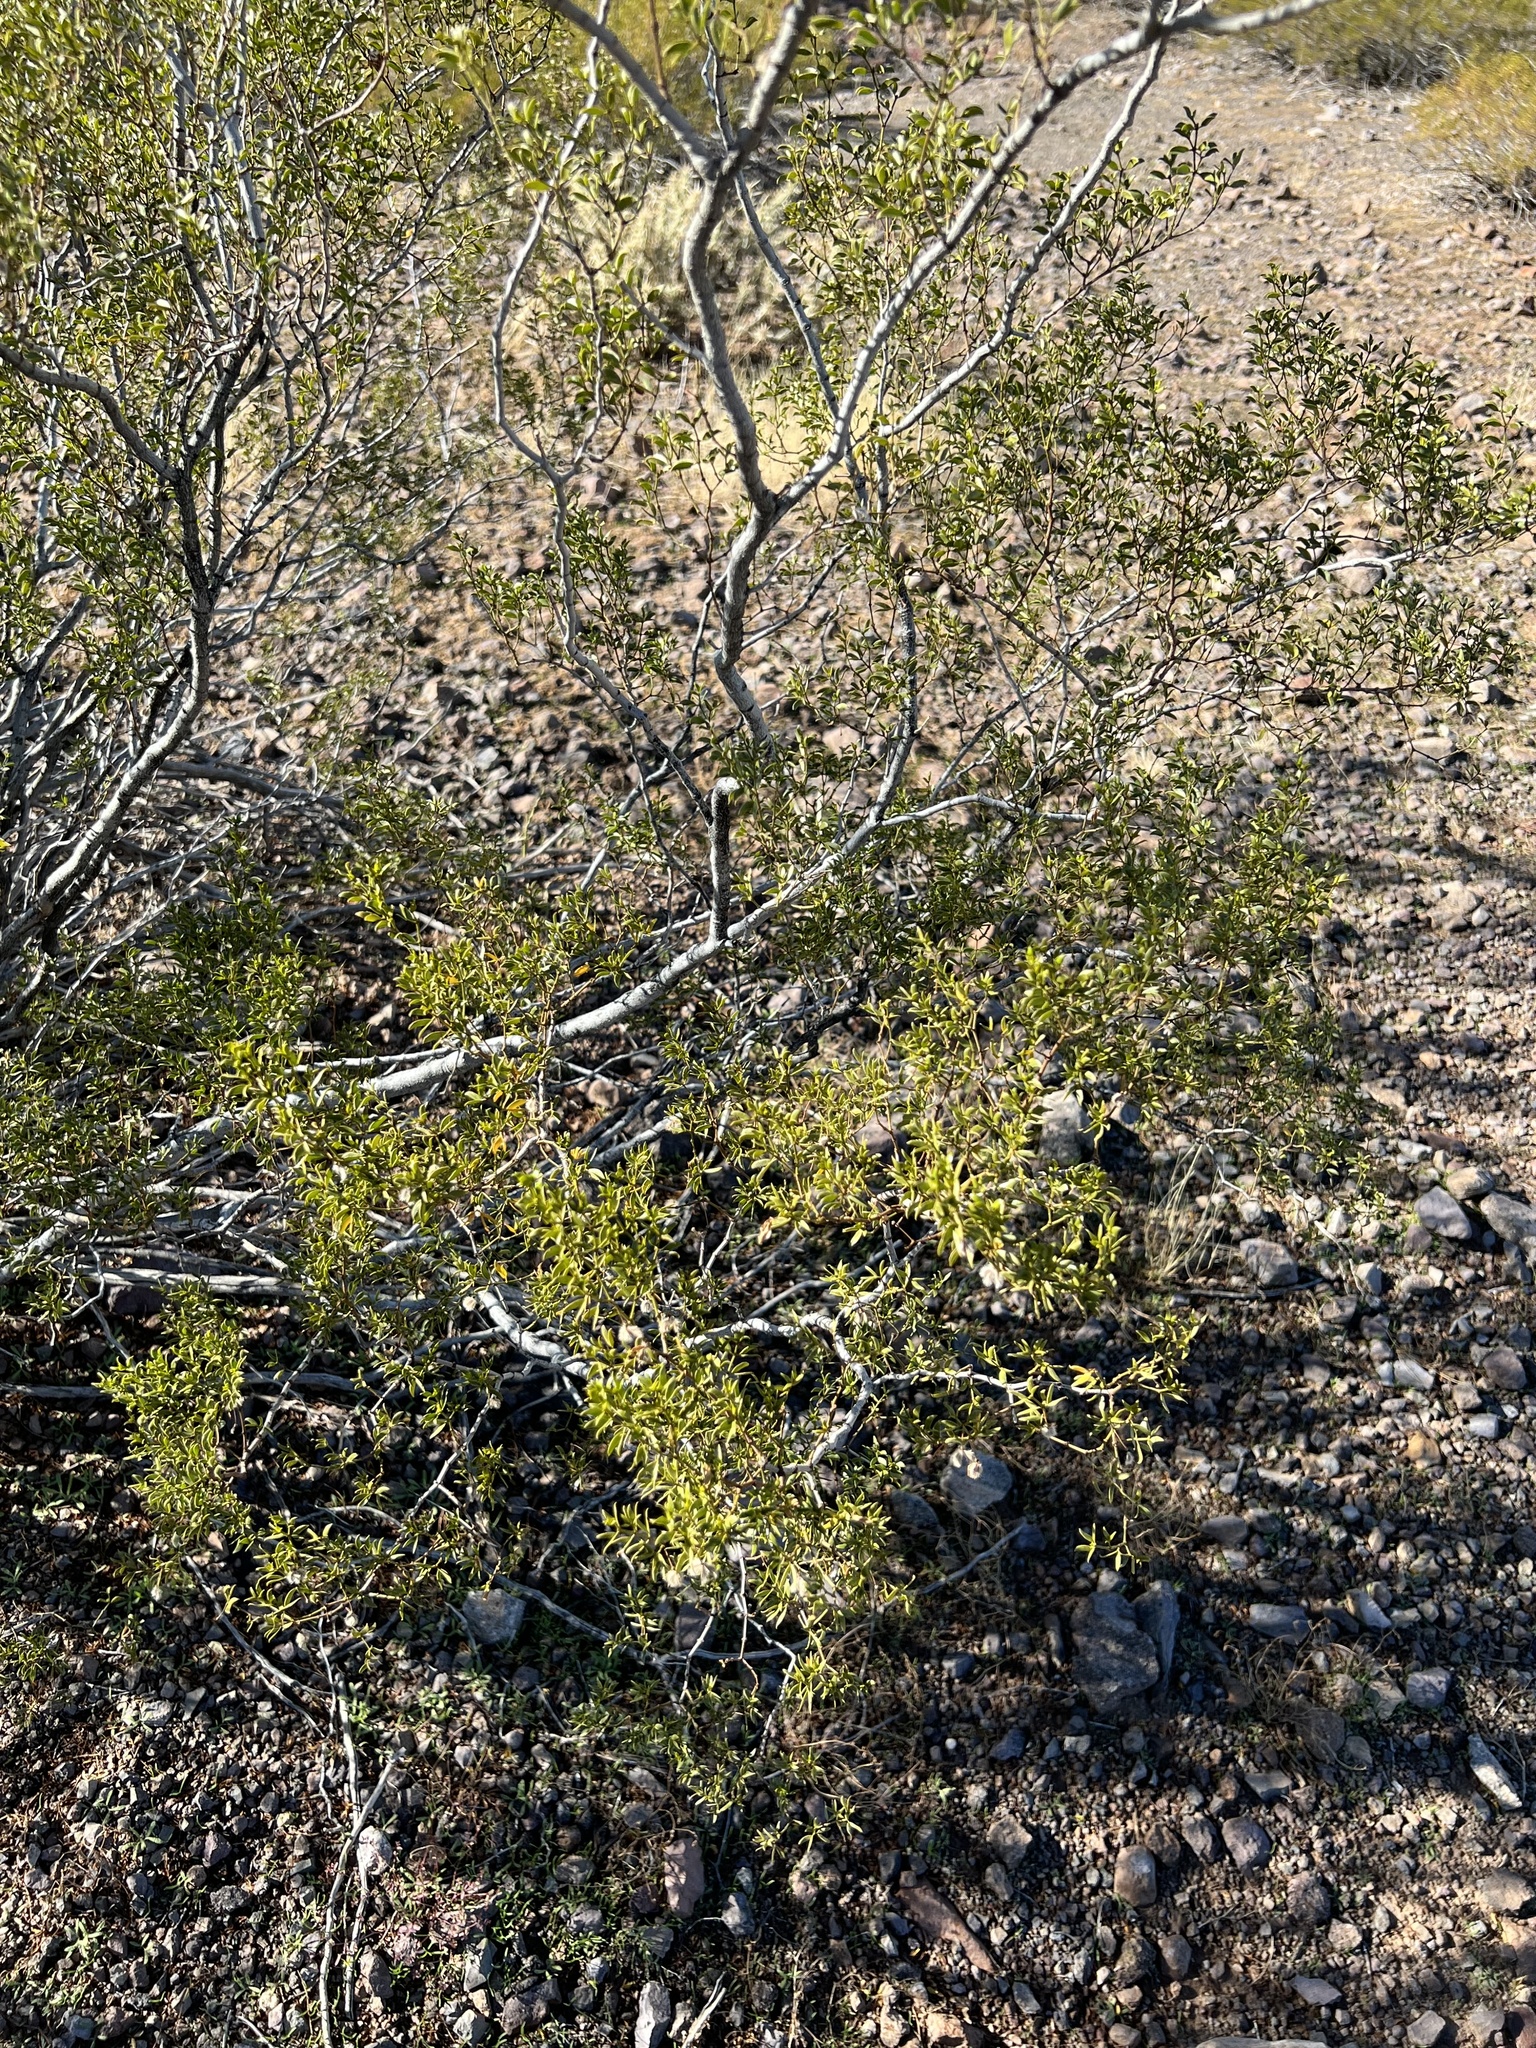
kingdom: Plantae
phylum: Tracheophyta
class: Magnoliopsida
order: Zygophyllales
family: Zygophyllaceae
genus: Larrea
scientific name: Larrea tridentata
